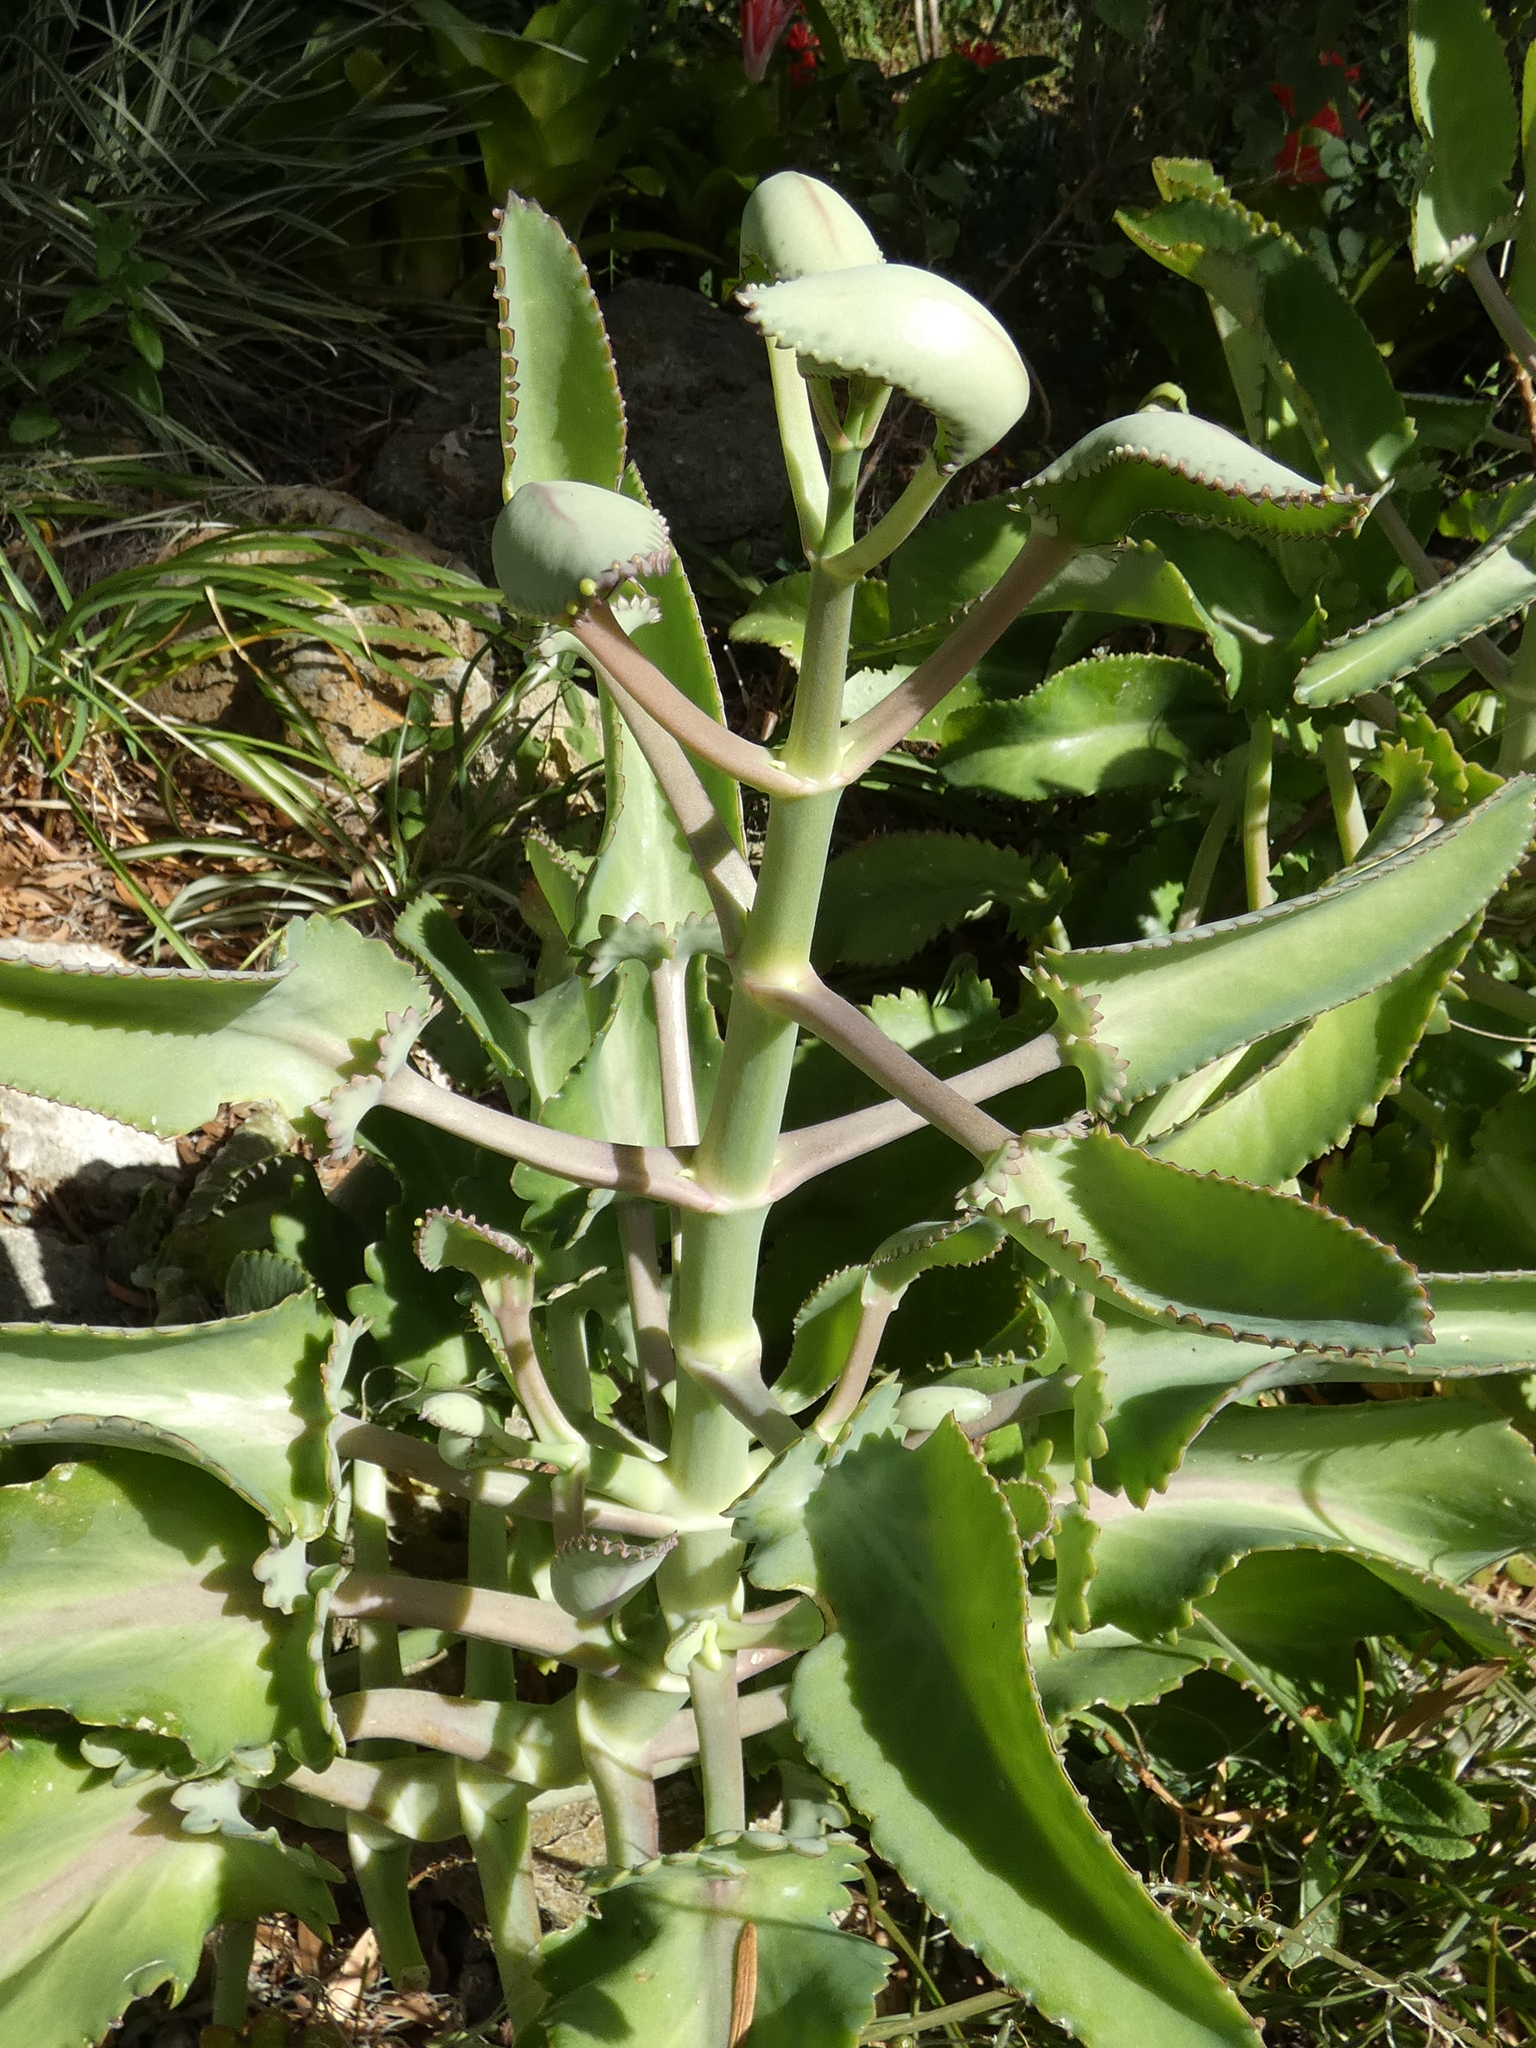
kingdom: Plantae
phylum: Tracheophyta
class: Magnoliopsida
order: Saxifragales
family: Crassulaceae
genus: Kalanchoe
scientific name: Kalanchoe laetivirens
